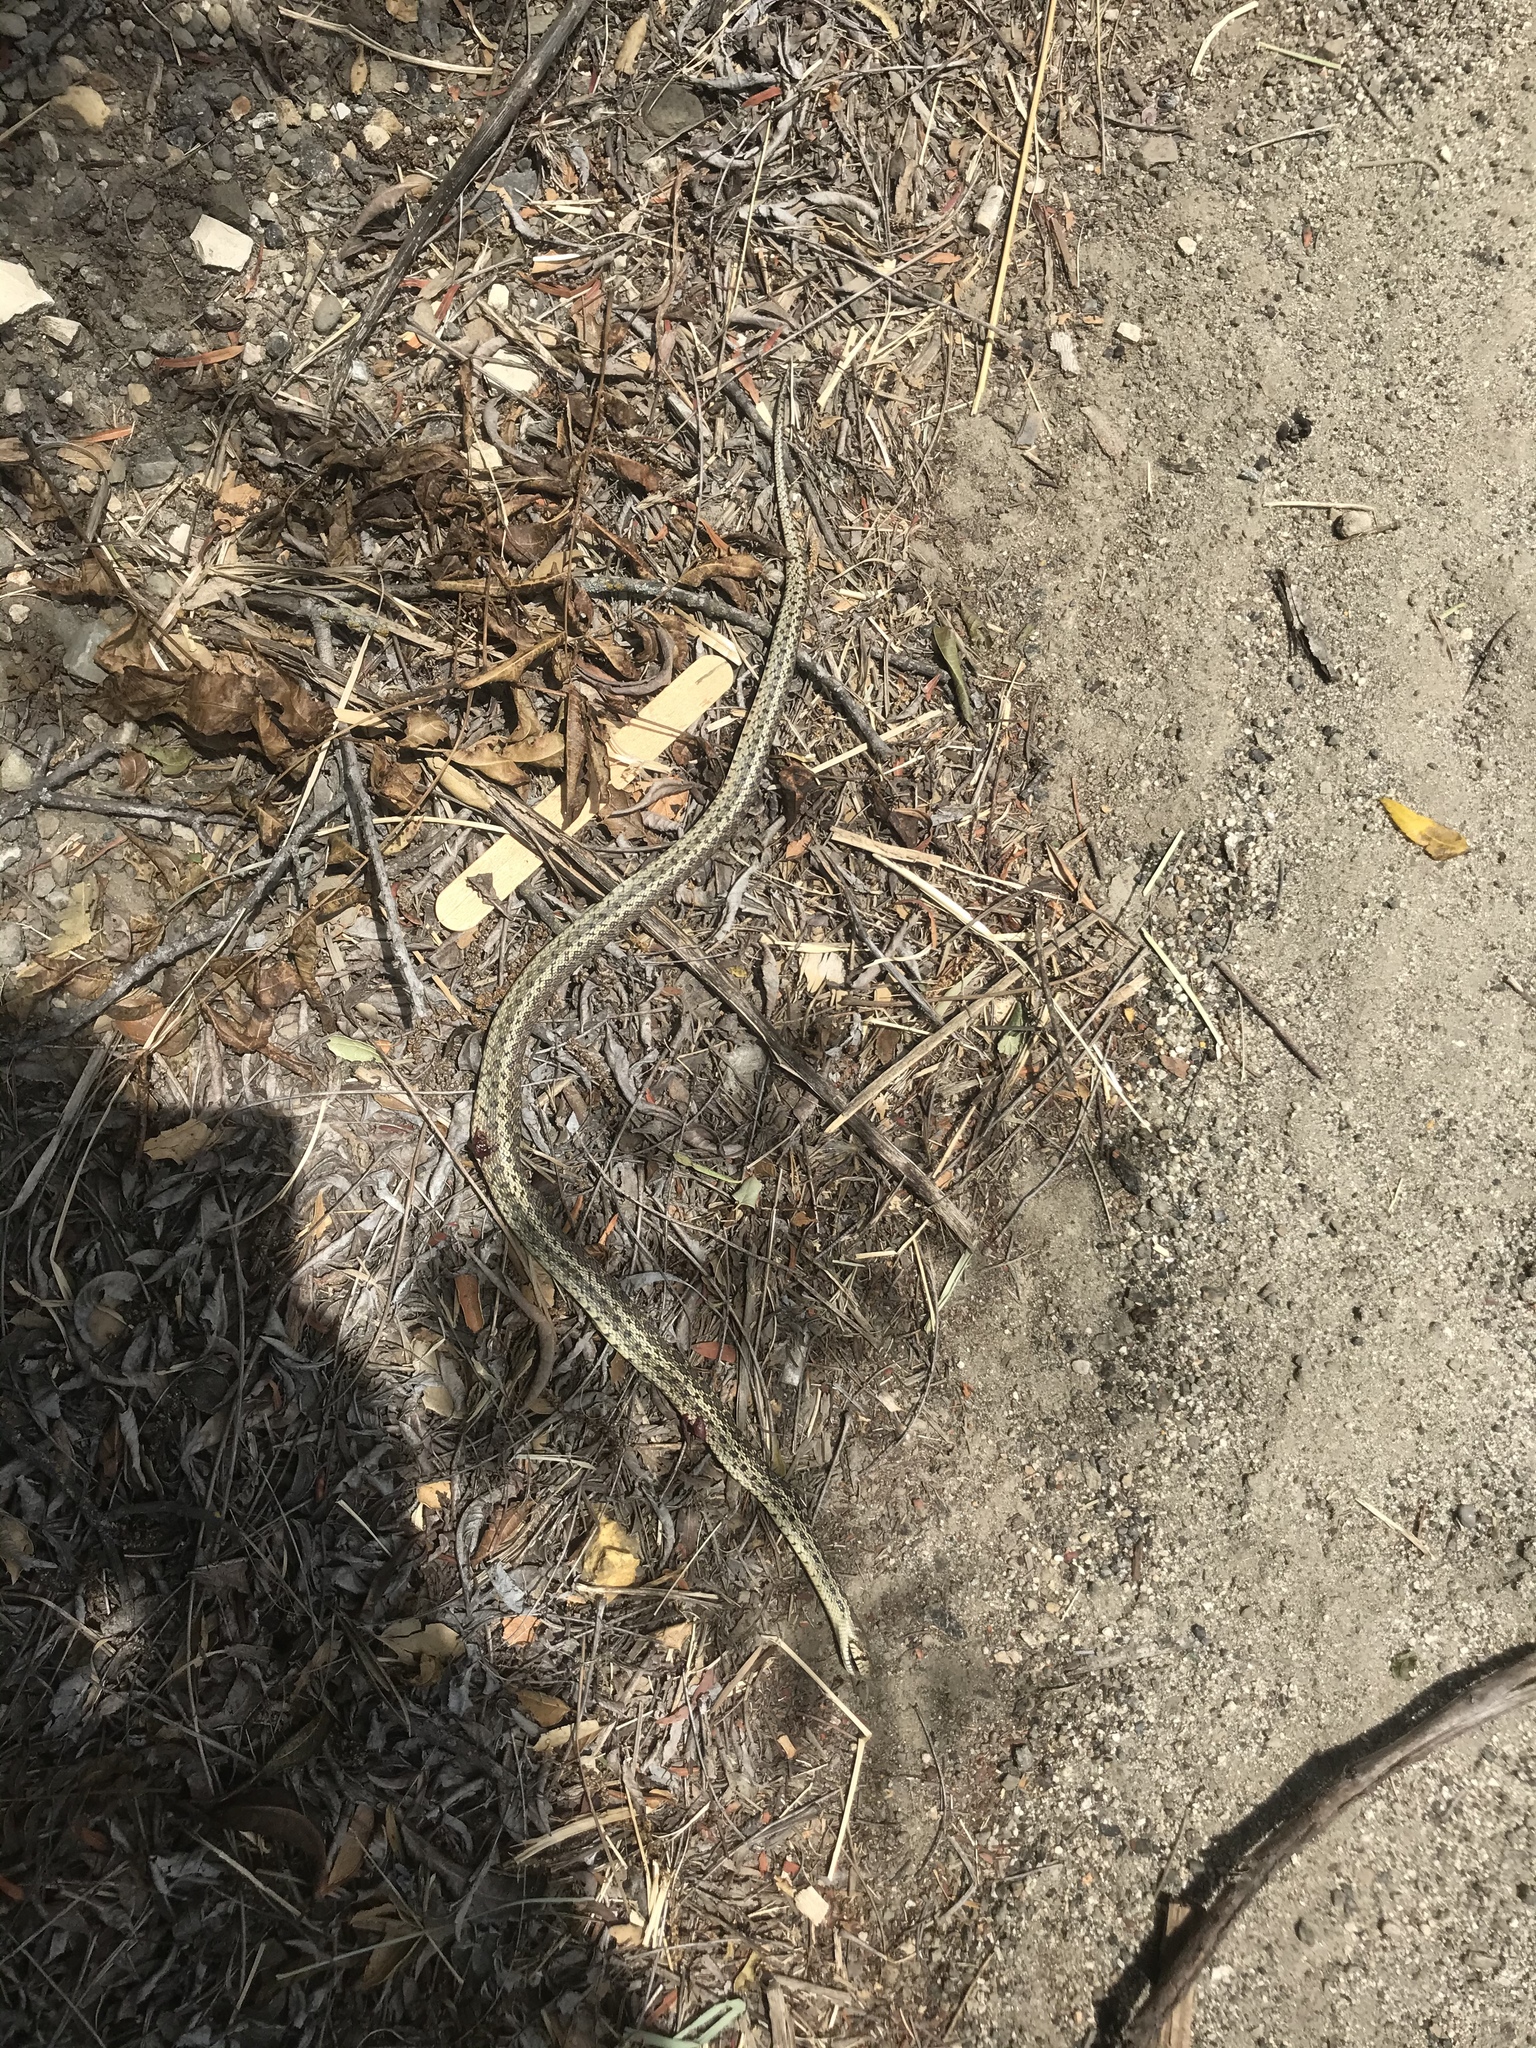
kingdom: Animalia
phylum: Chordata
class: Squamata
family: Colubridae
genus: Pituophis
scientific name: Pituophis catenifer
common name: Gopher snake
